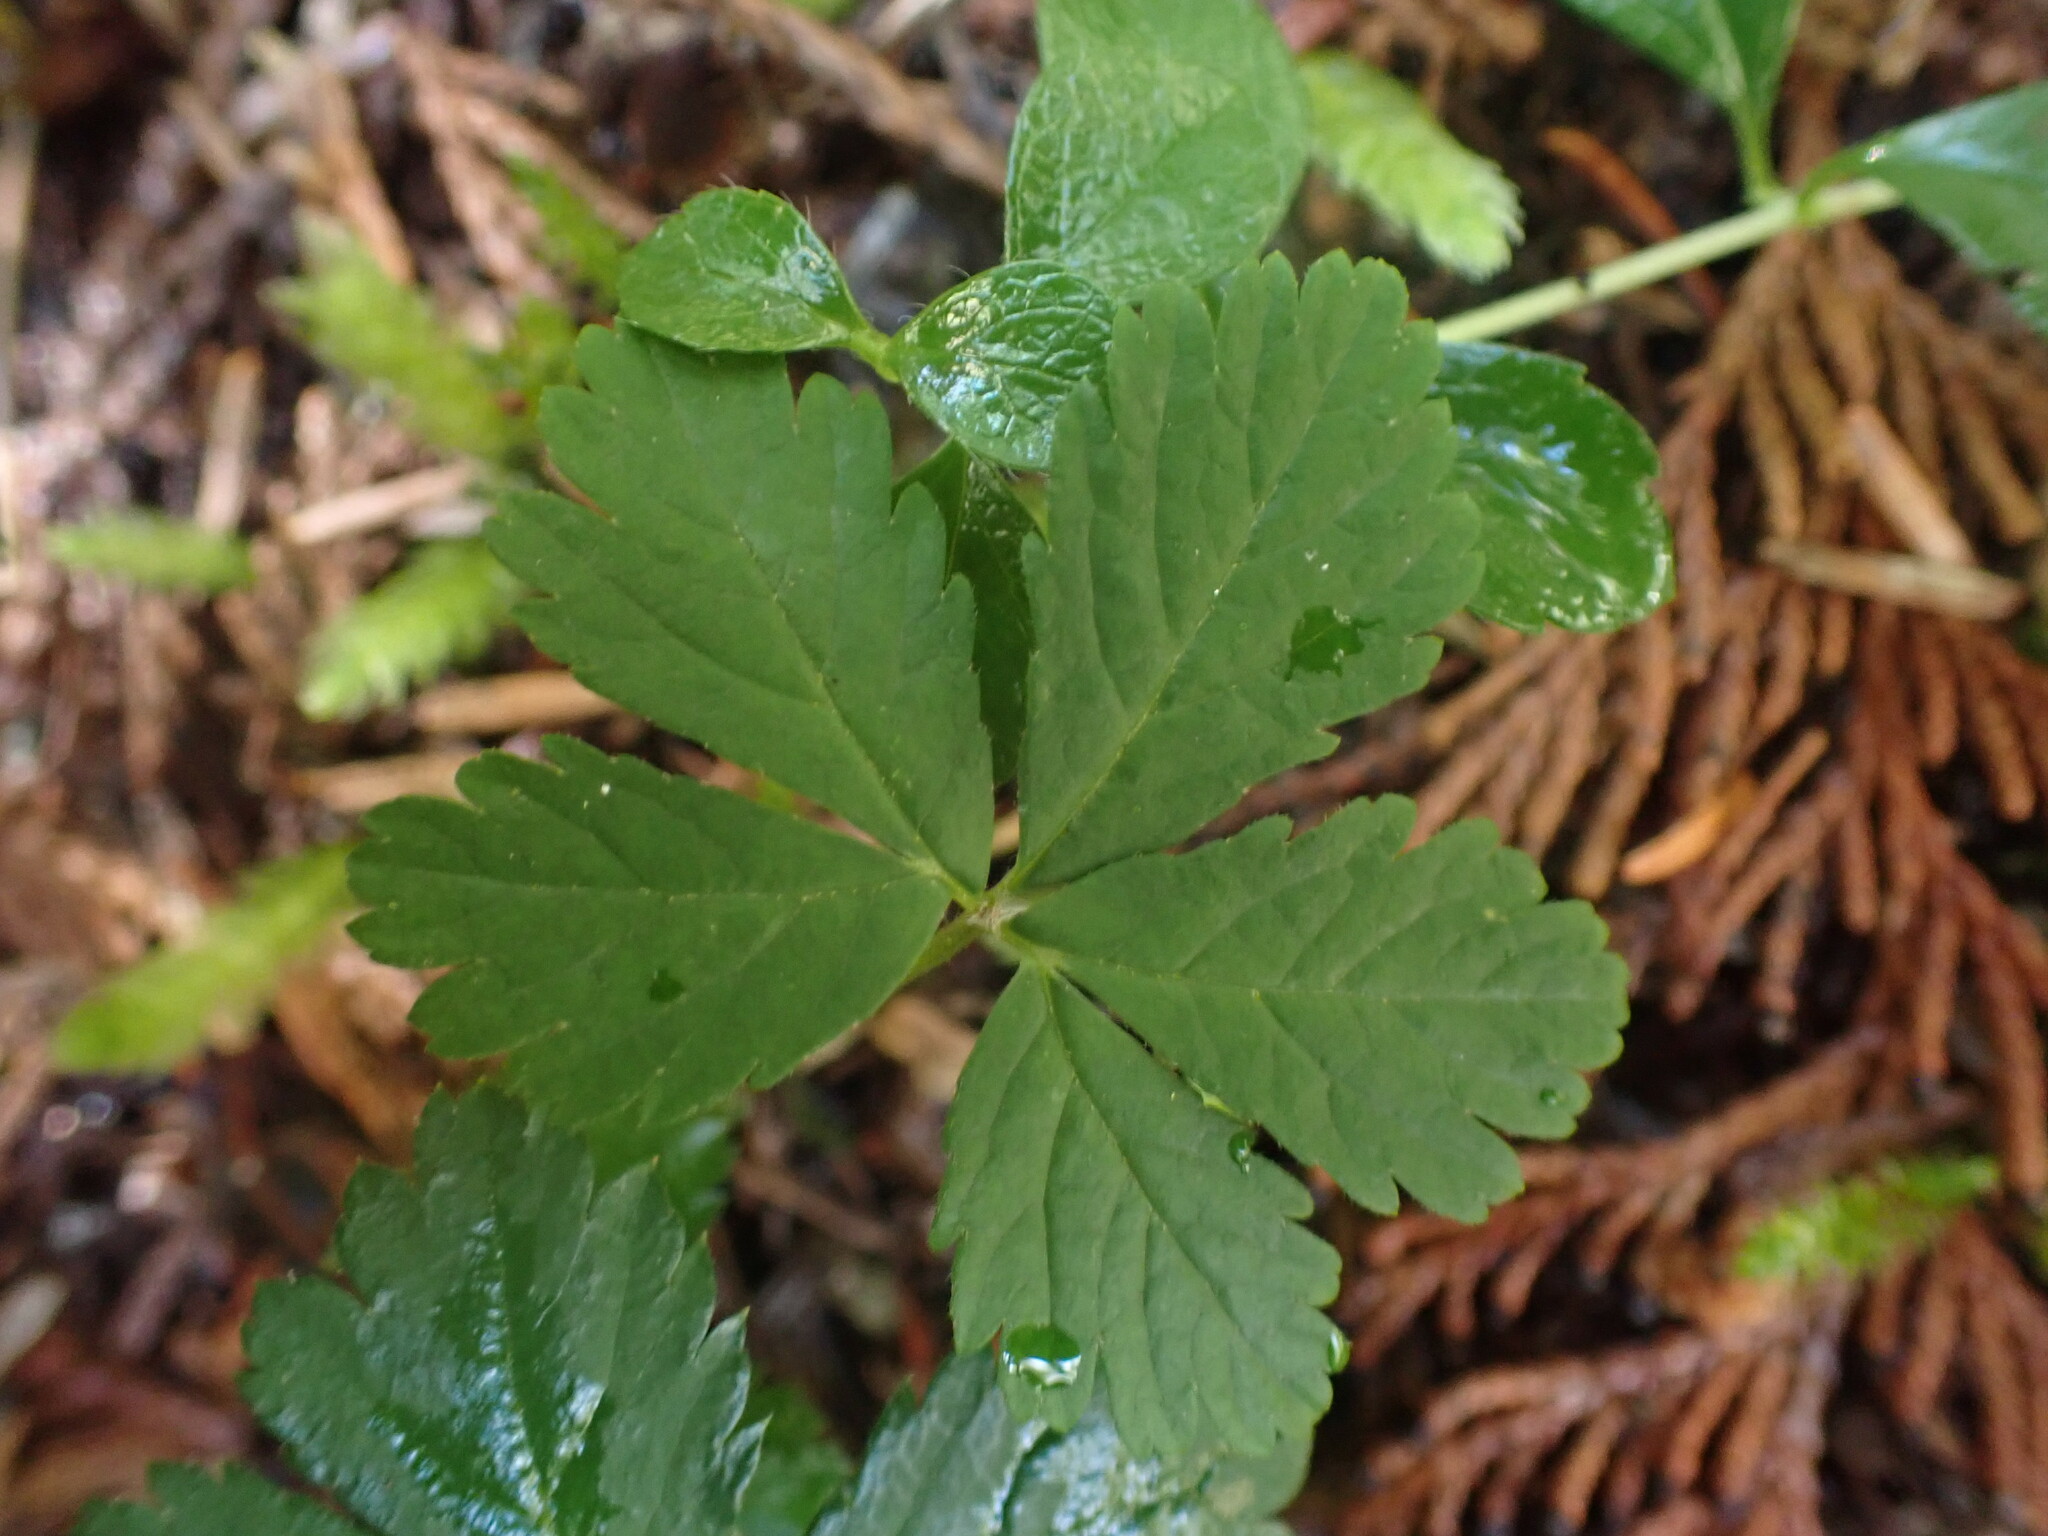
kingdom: Plantae
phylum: Tracheophyta
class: Magnoliopsida
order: Rosales
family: Rosaceae
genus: Rubus
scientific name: Rubus pedatus
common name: Creeping raspberry
